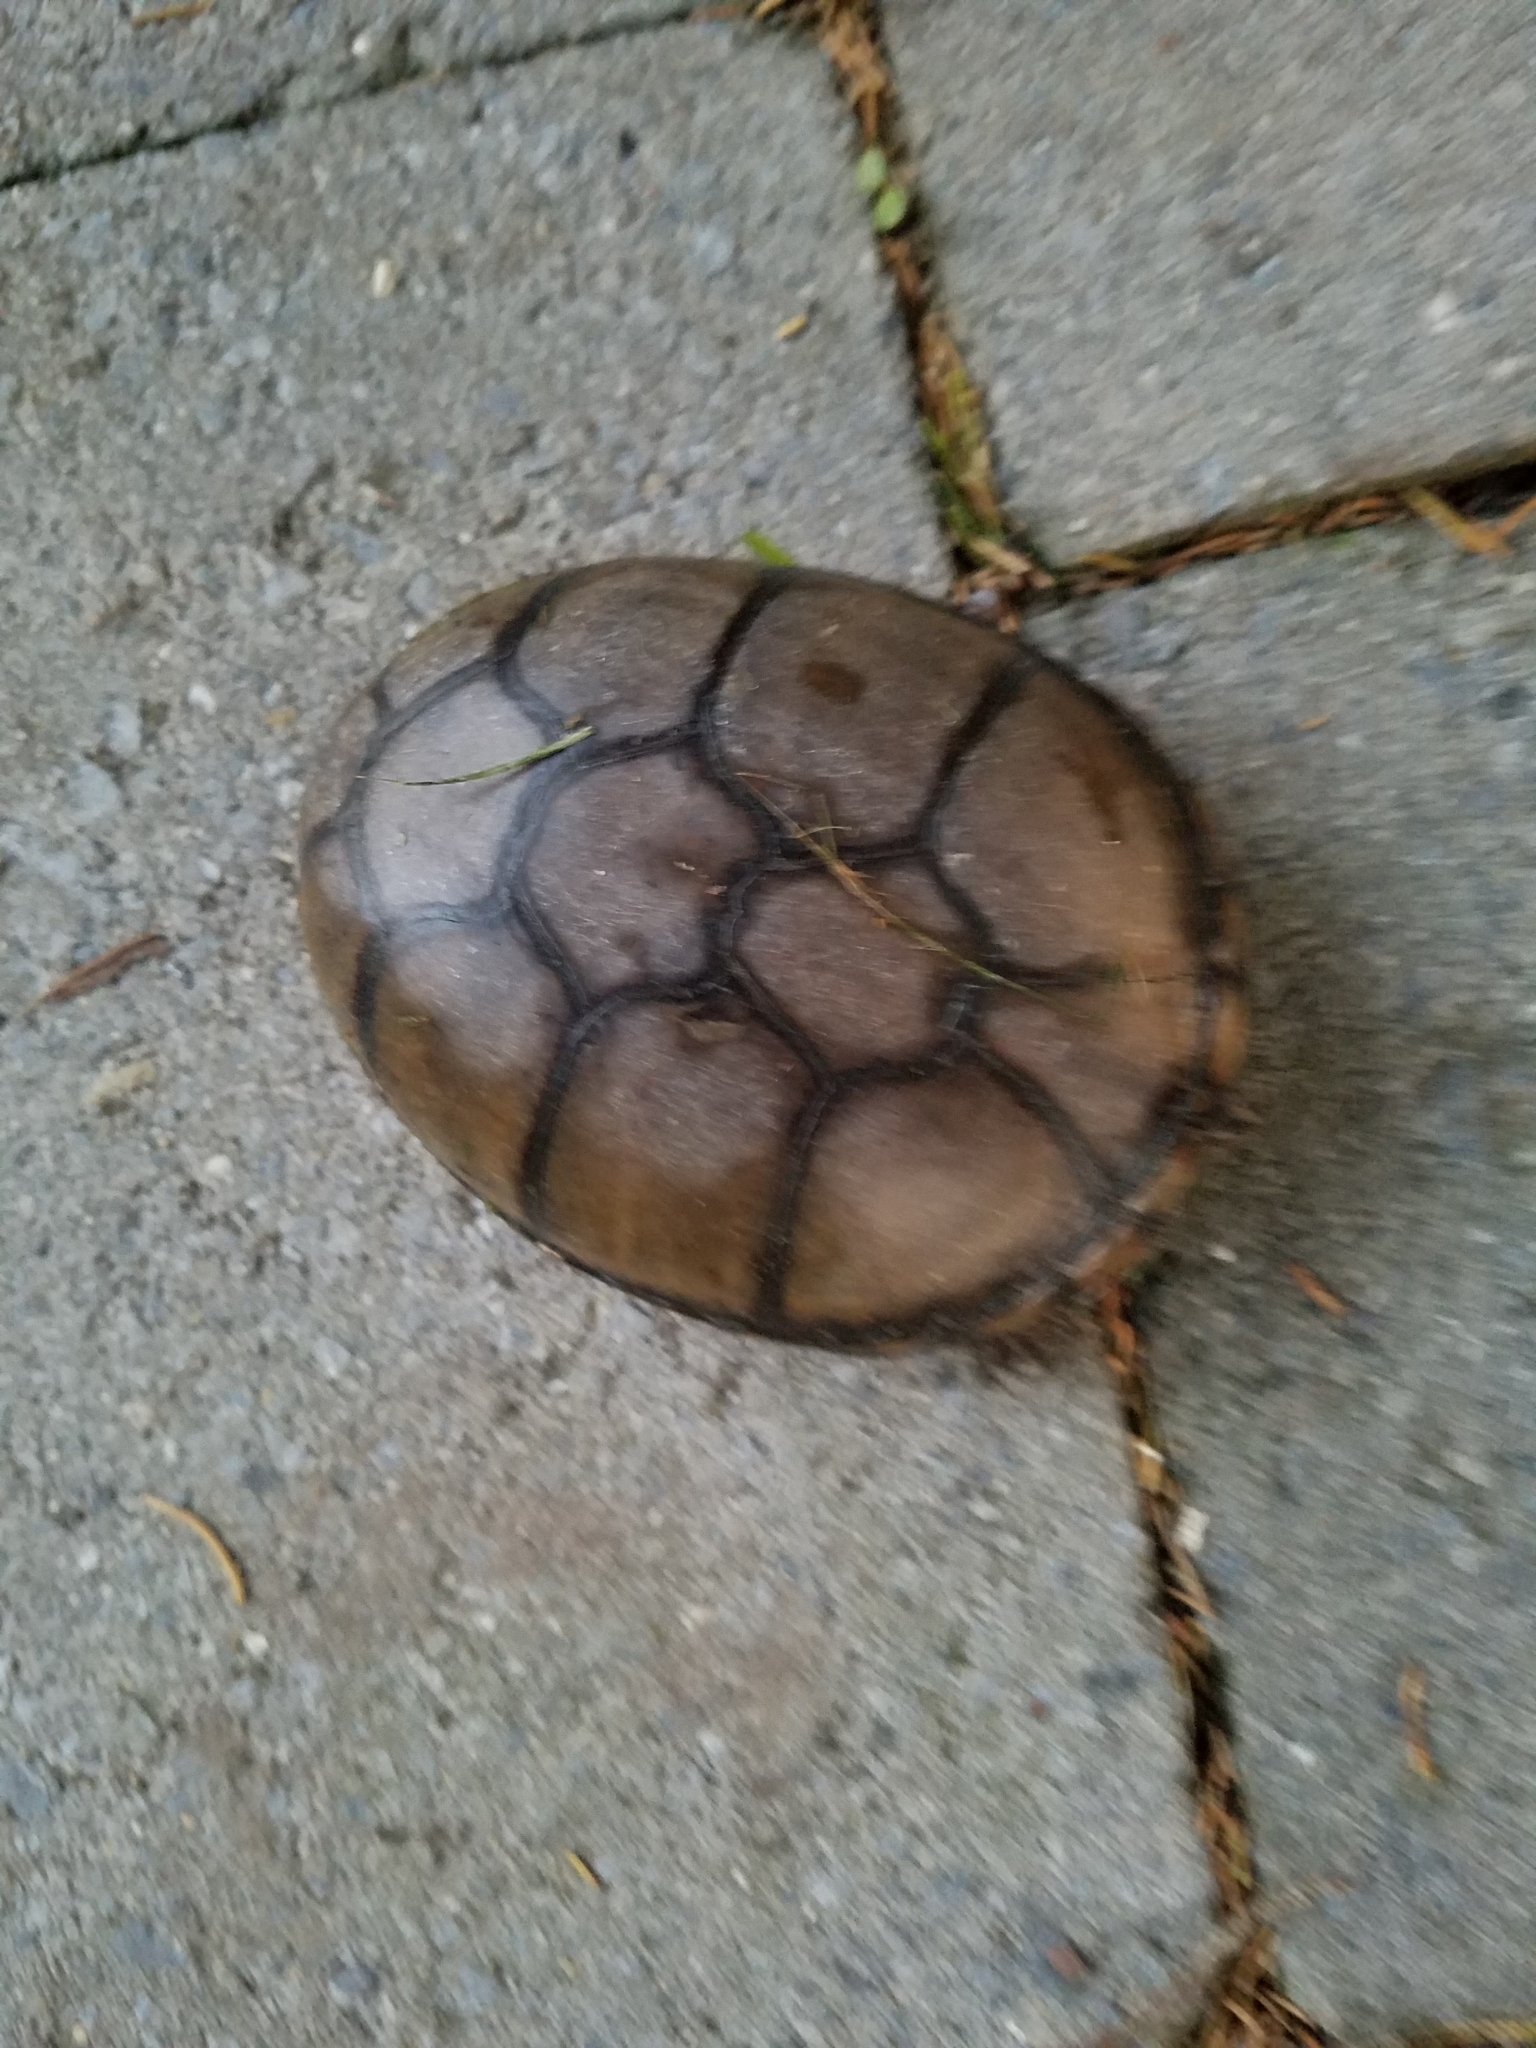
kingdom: Animalia
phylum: Chordata
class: Testudines
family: Kinosternidae
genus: Kinosternon
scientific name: Kinosternon subrubrum
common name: Eastern mud turtle
